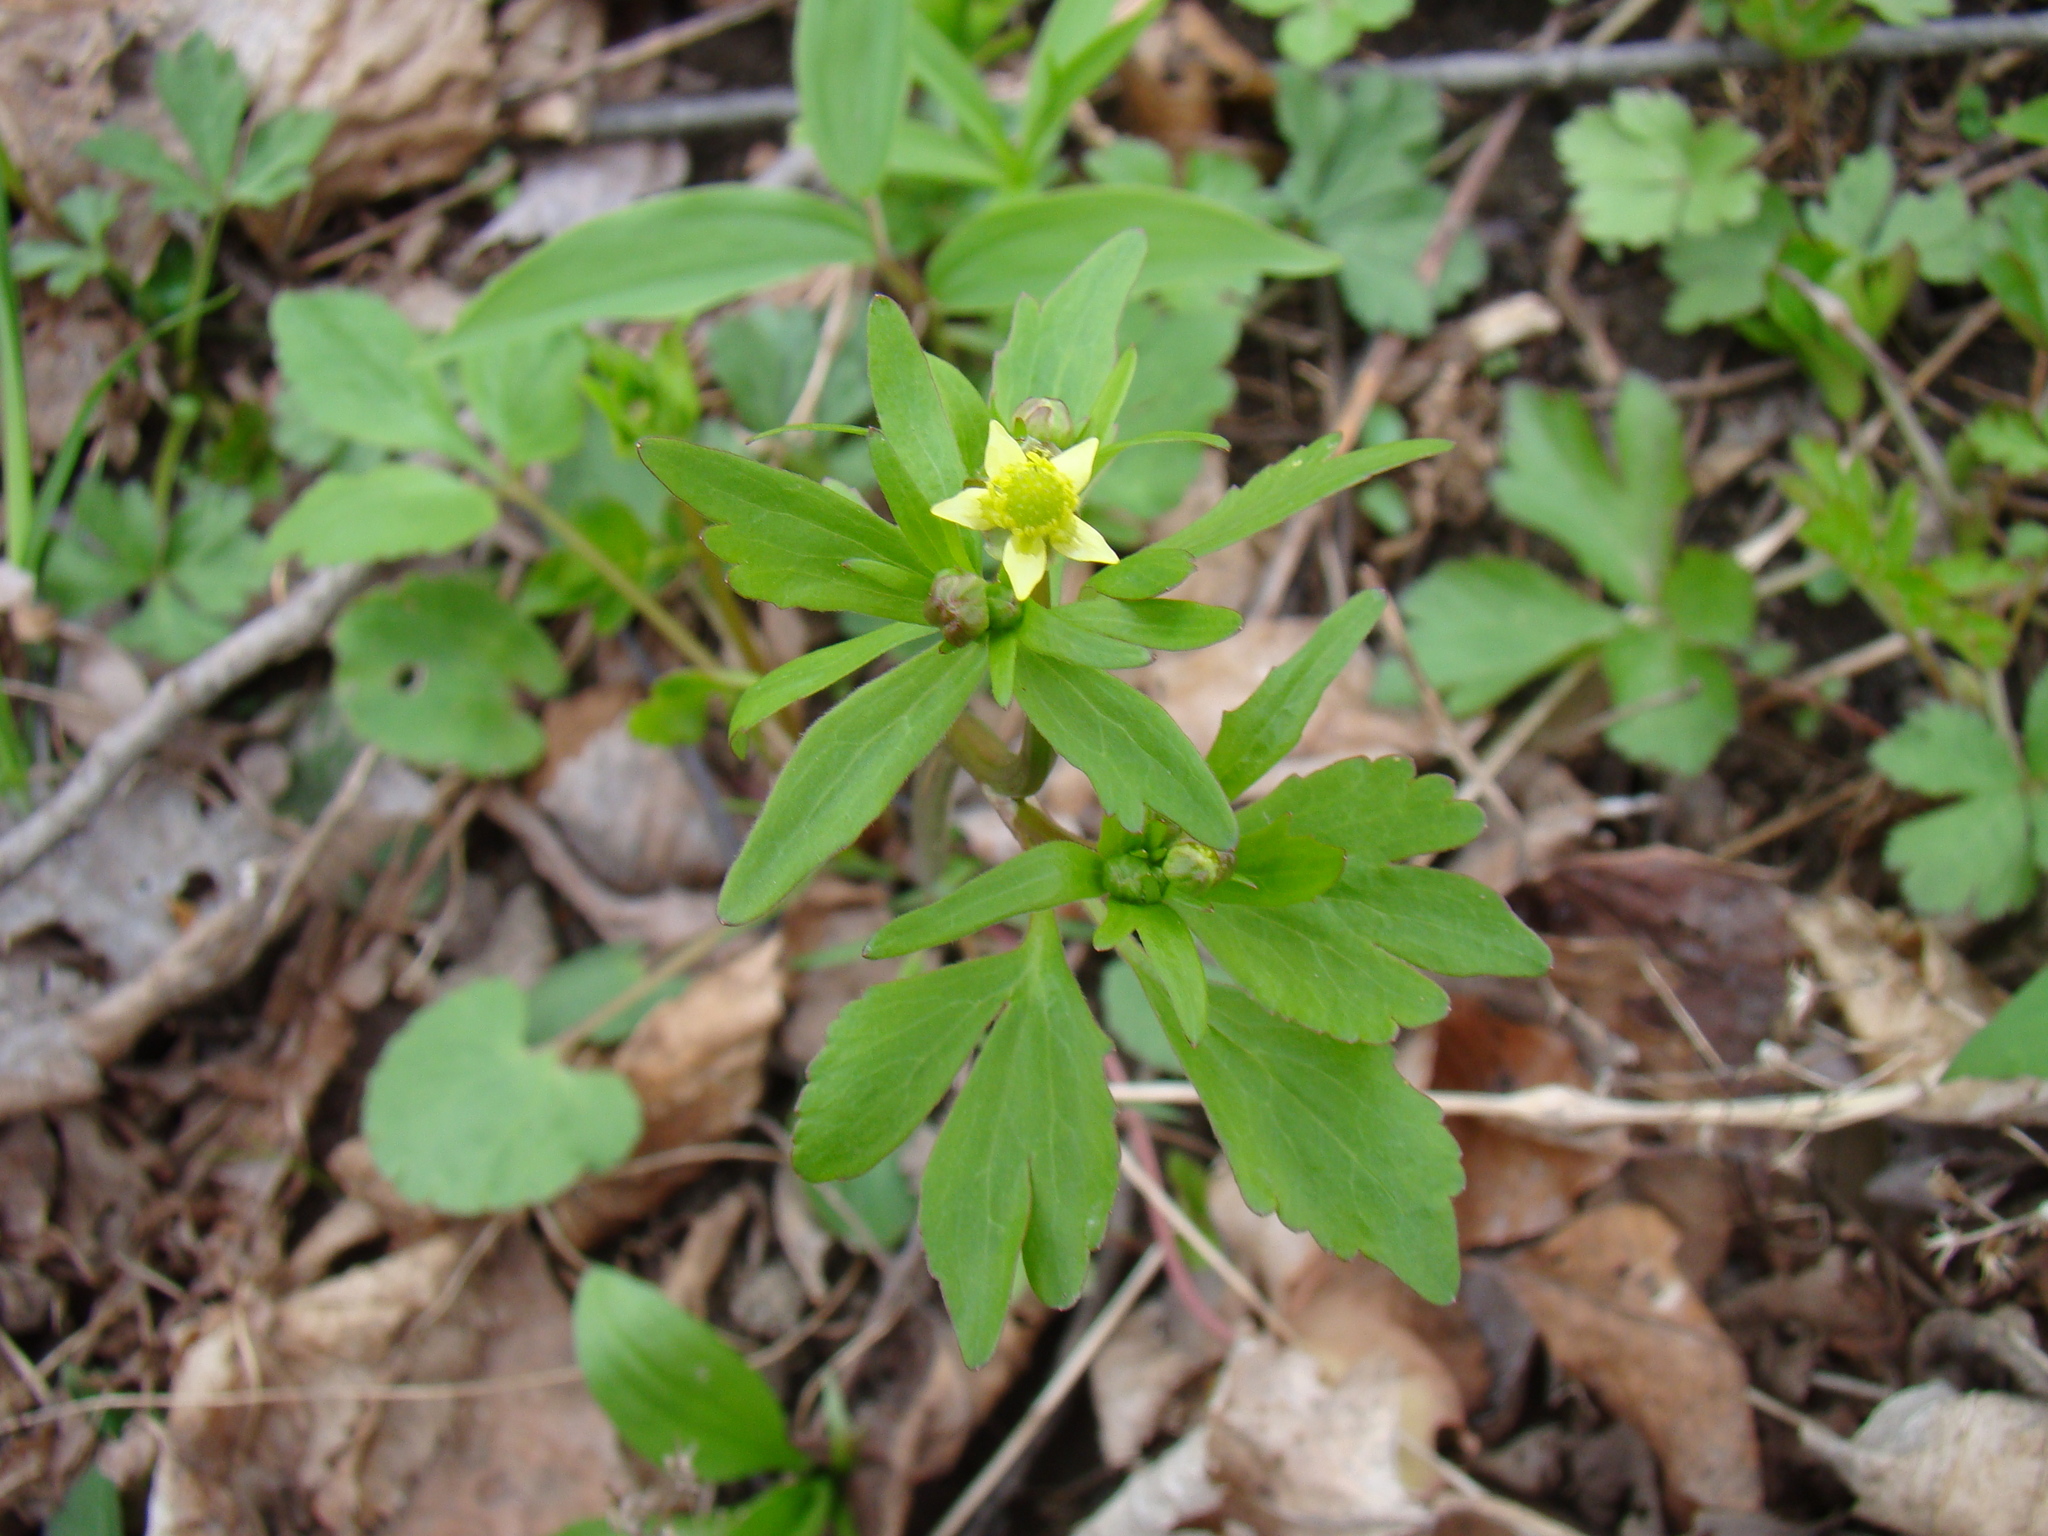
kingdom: Plantae
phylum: Tracheophyta
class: Magnoliopsida
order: Ranunculales
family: Ranunculaceae
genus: Ranunculus
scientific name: Ranunculus abortivus
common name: Early wood buttercup
